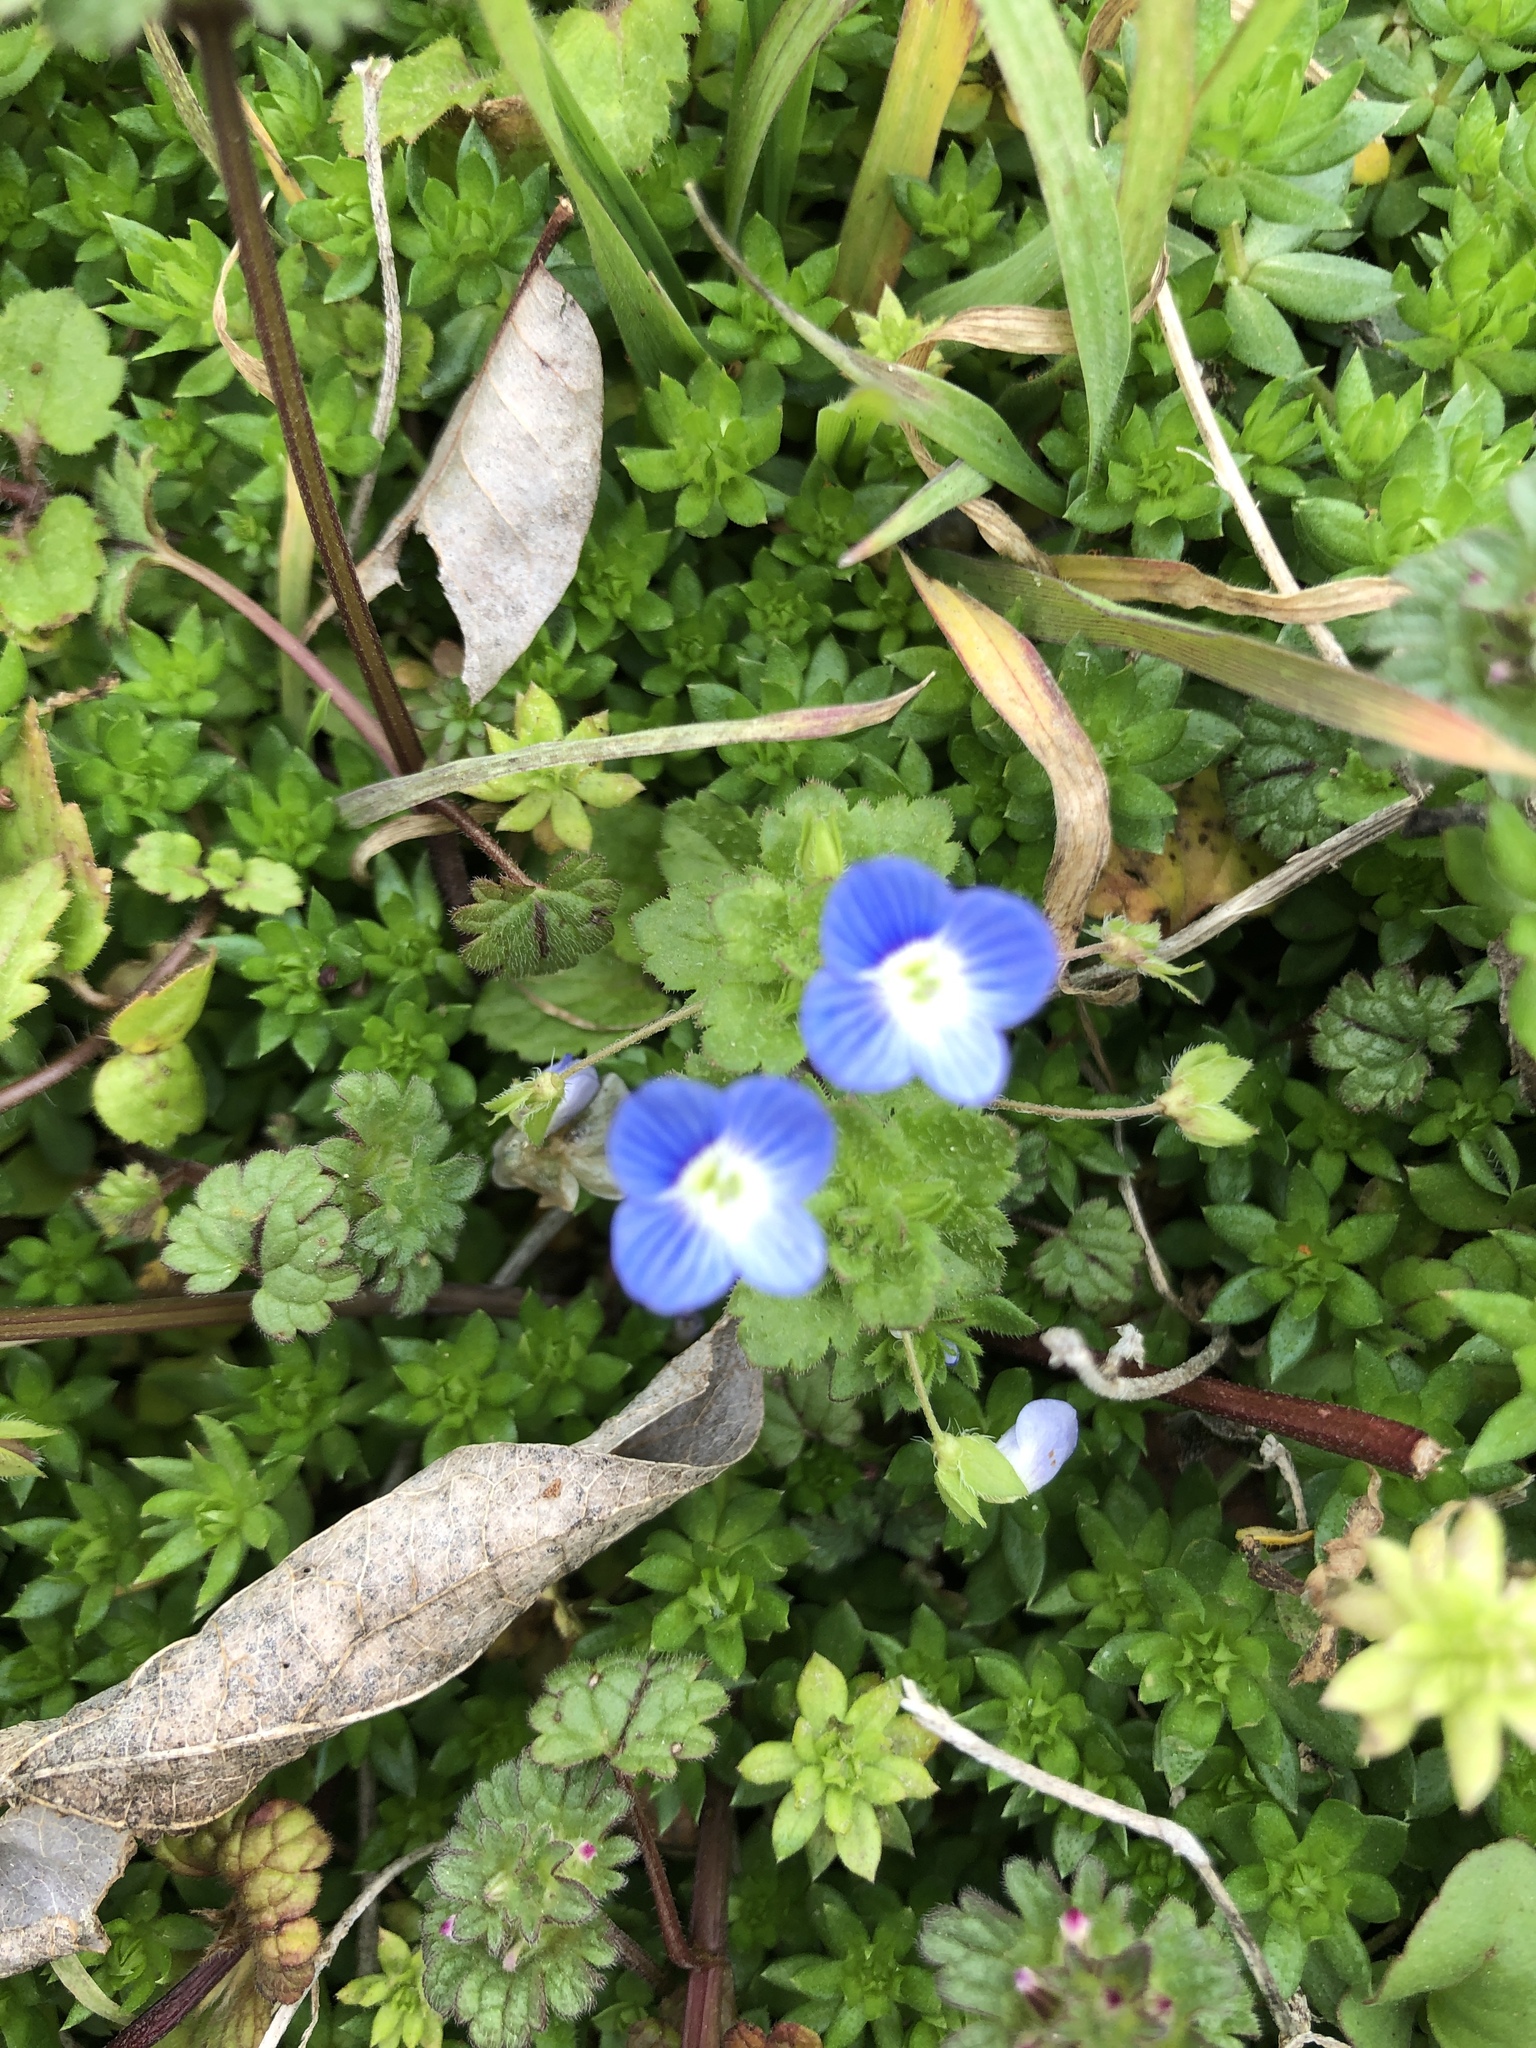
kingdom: Plantae
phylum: Tracheophyta
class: Magnoliopsida
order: Lamiales
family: Plantaginaceae
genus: Veronica
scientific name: Veronica persica
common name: Common field-speedwell
